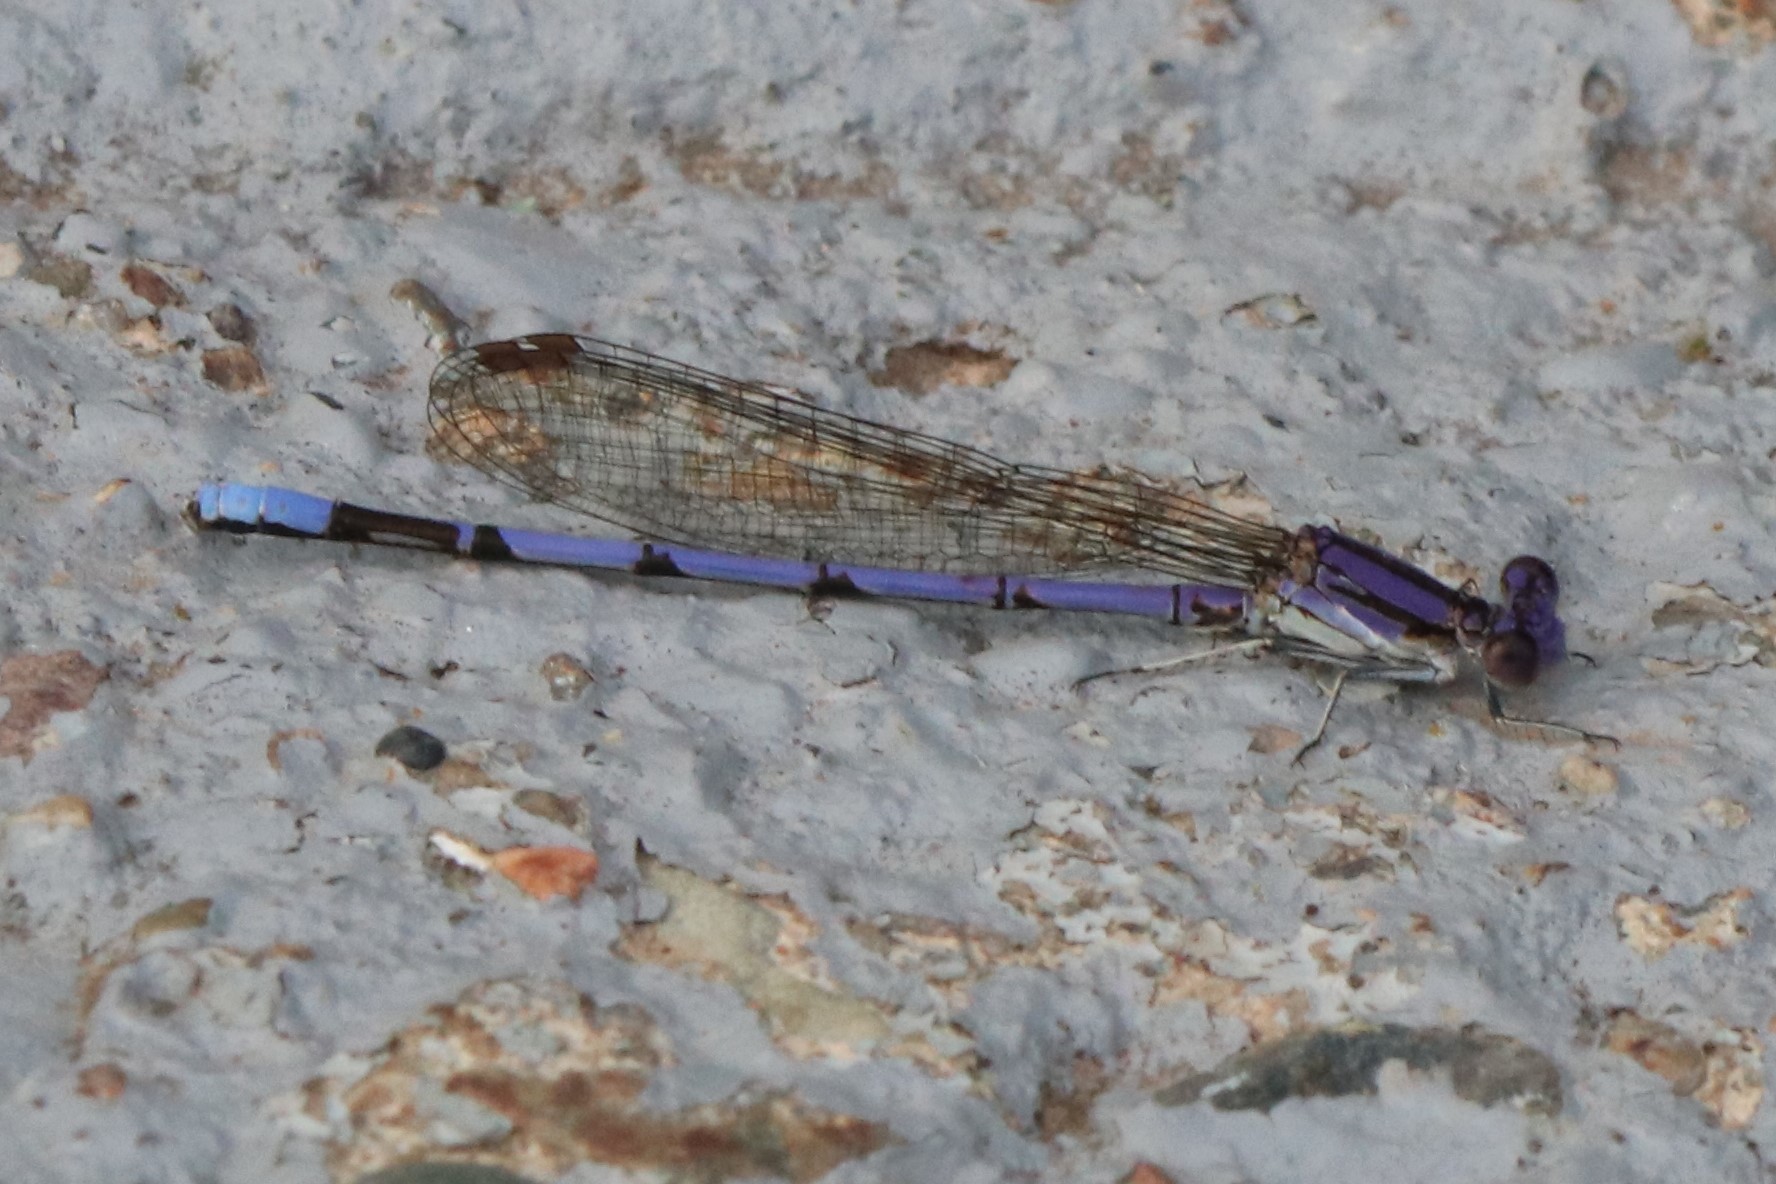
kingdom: Animalia
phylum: Arthropoda
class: Insecta
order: Odonata
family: Coenagrionidae
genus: Argia
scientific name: Argia fumipennis
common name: Variable dancer
